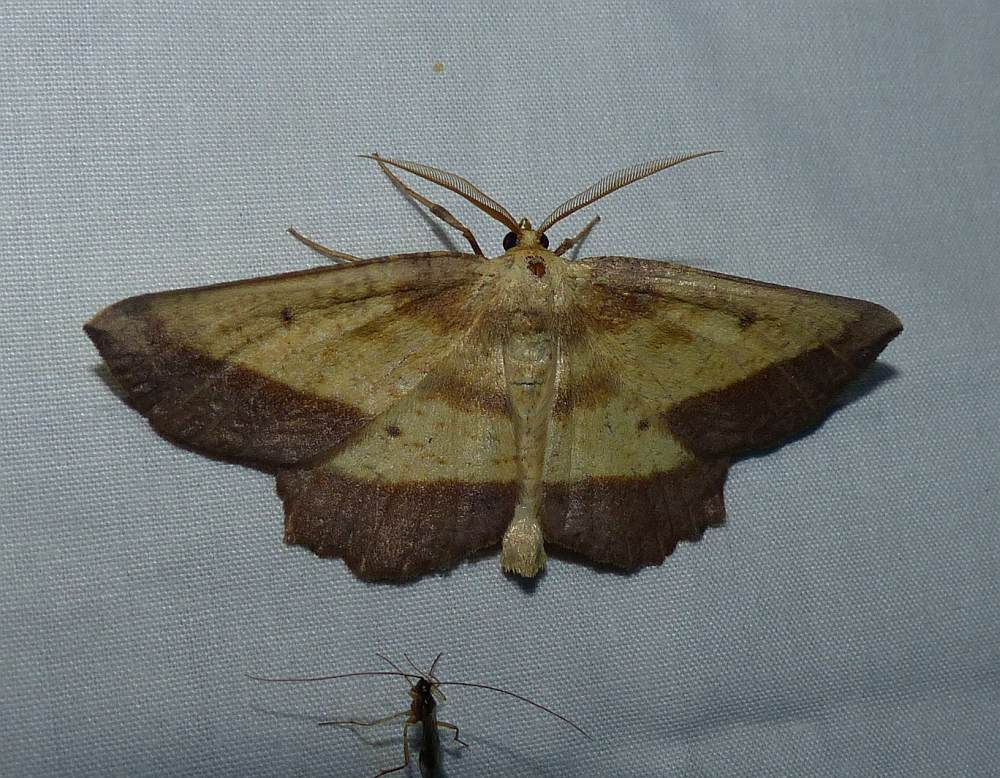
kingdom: Animalia
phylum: Arthropoda
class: Insecta
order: Lepidoptera
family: Geometridae
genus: Euchlaena
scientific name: Euchlaena serrata
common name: Saw wing
